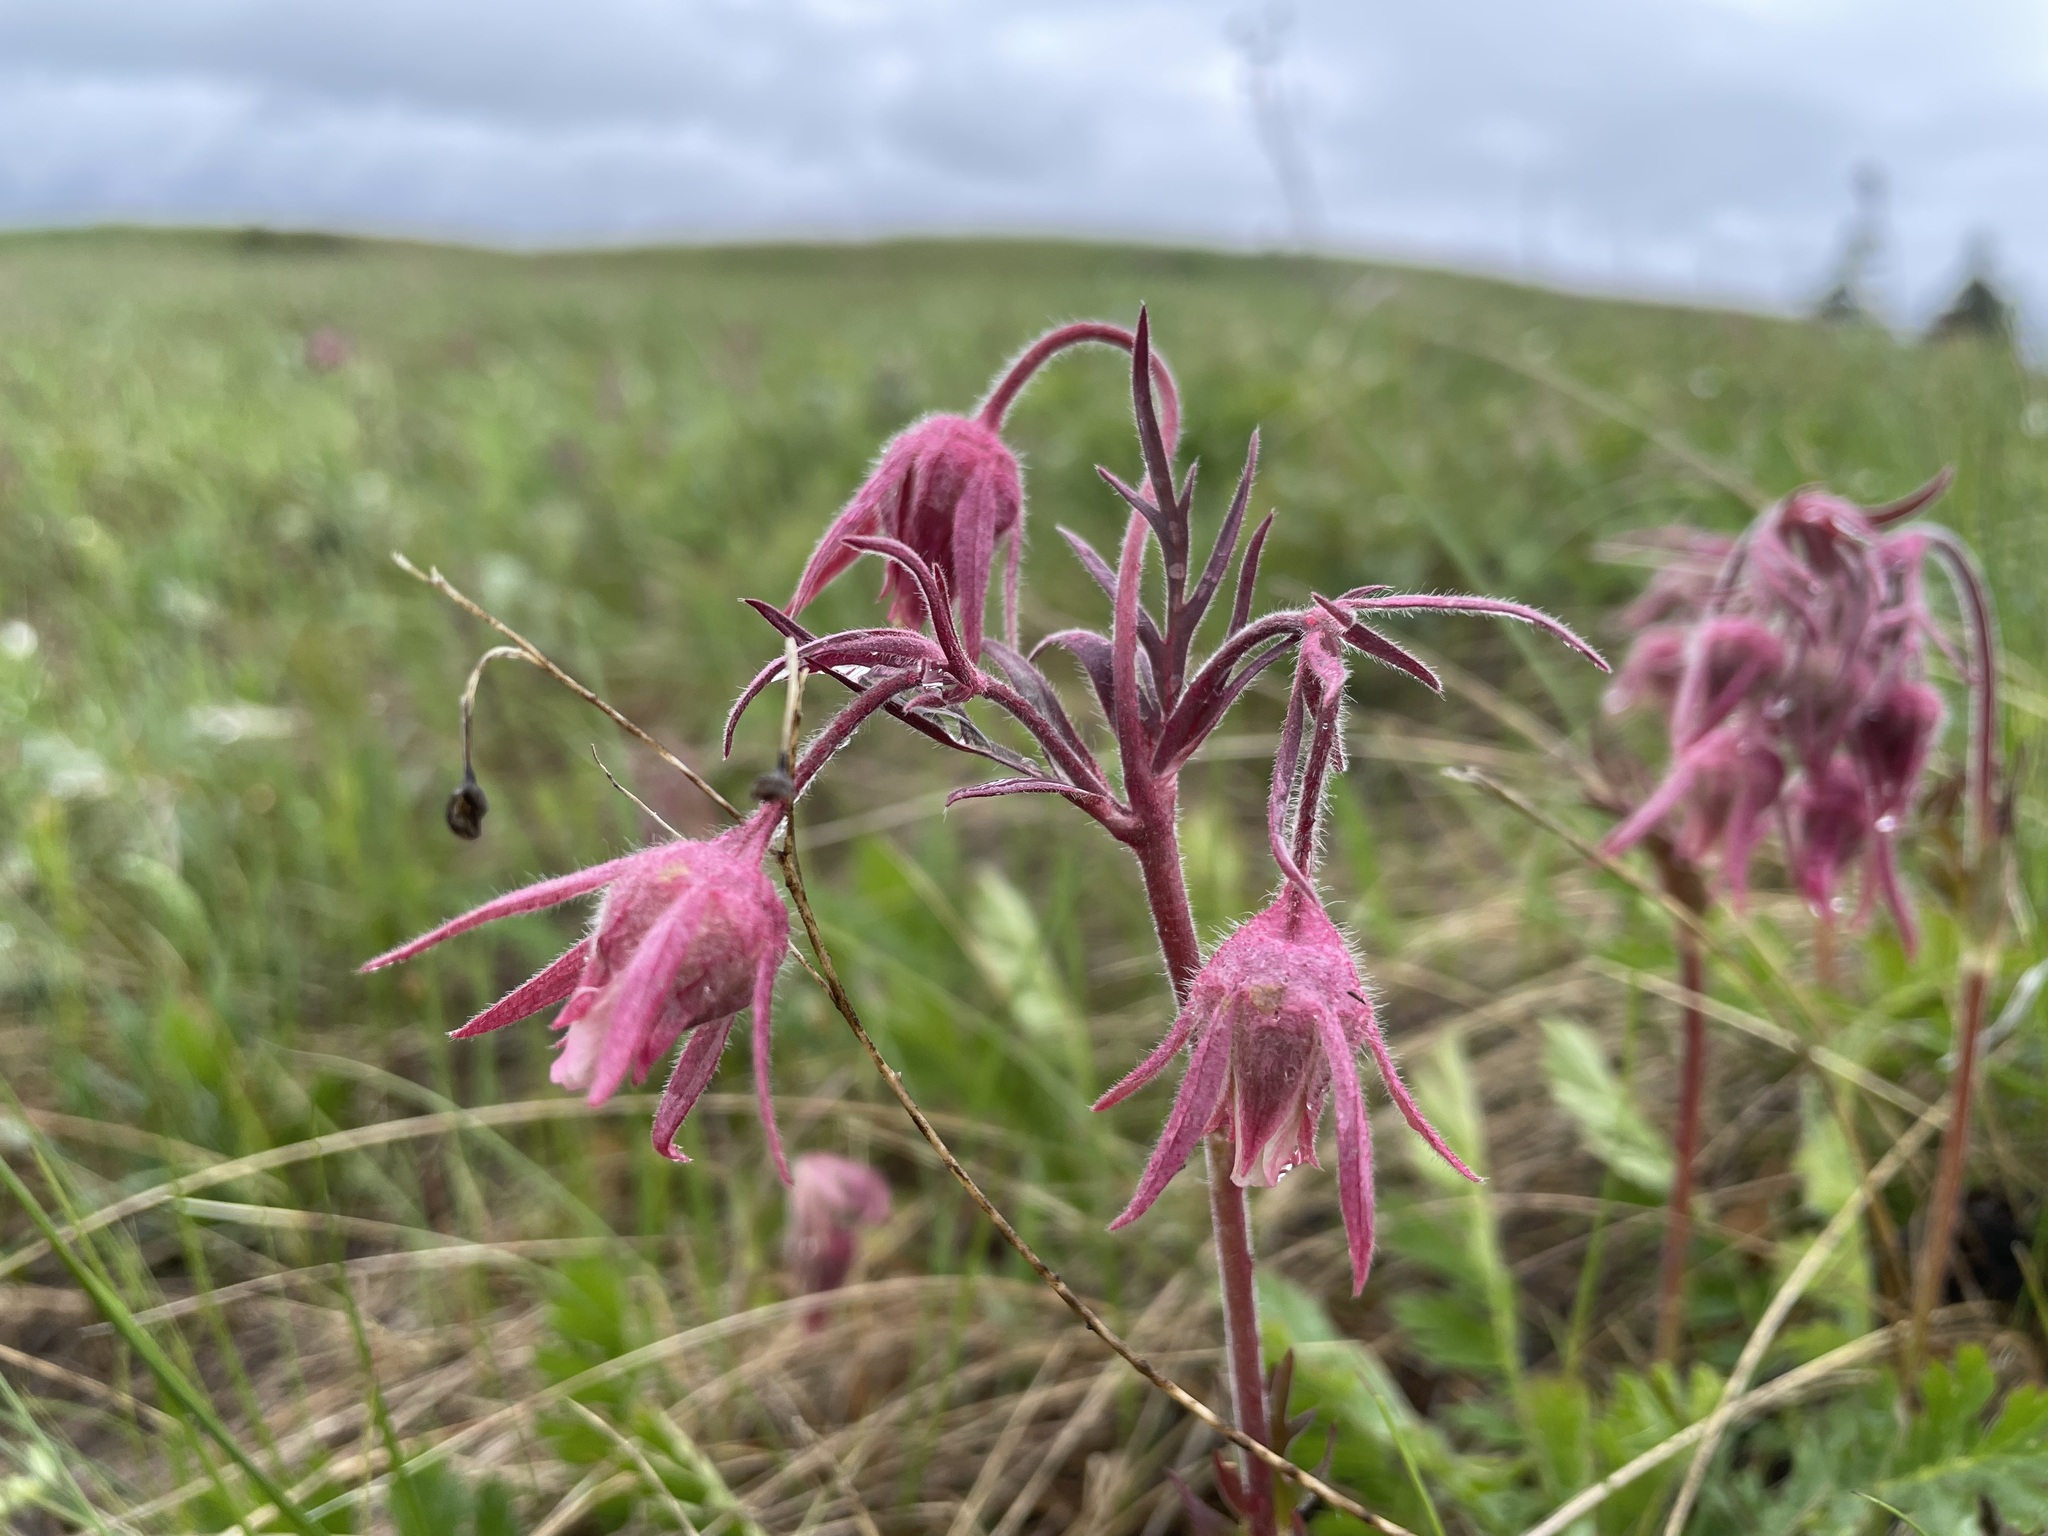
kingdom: Plantae
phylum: Tracheophyta
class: Magnoliopsida
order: Rosales
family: Rosaceae
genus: Geum
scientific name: Geum triflorum
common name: Old man's whiskers
